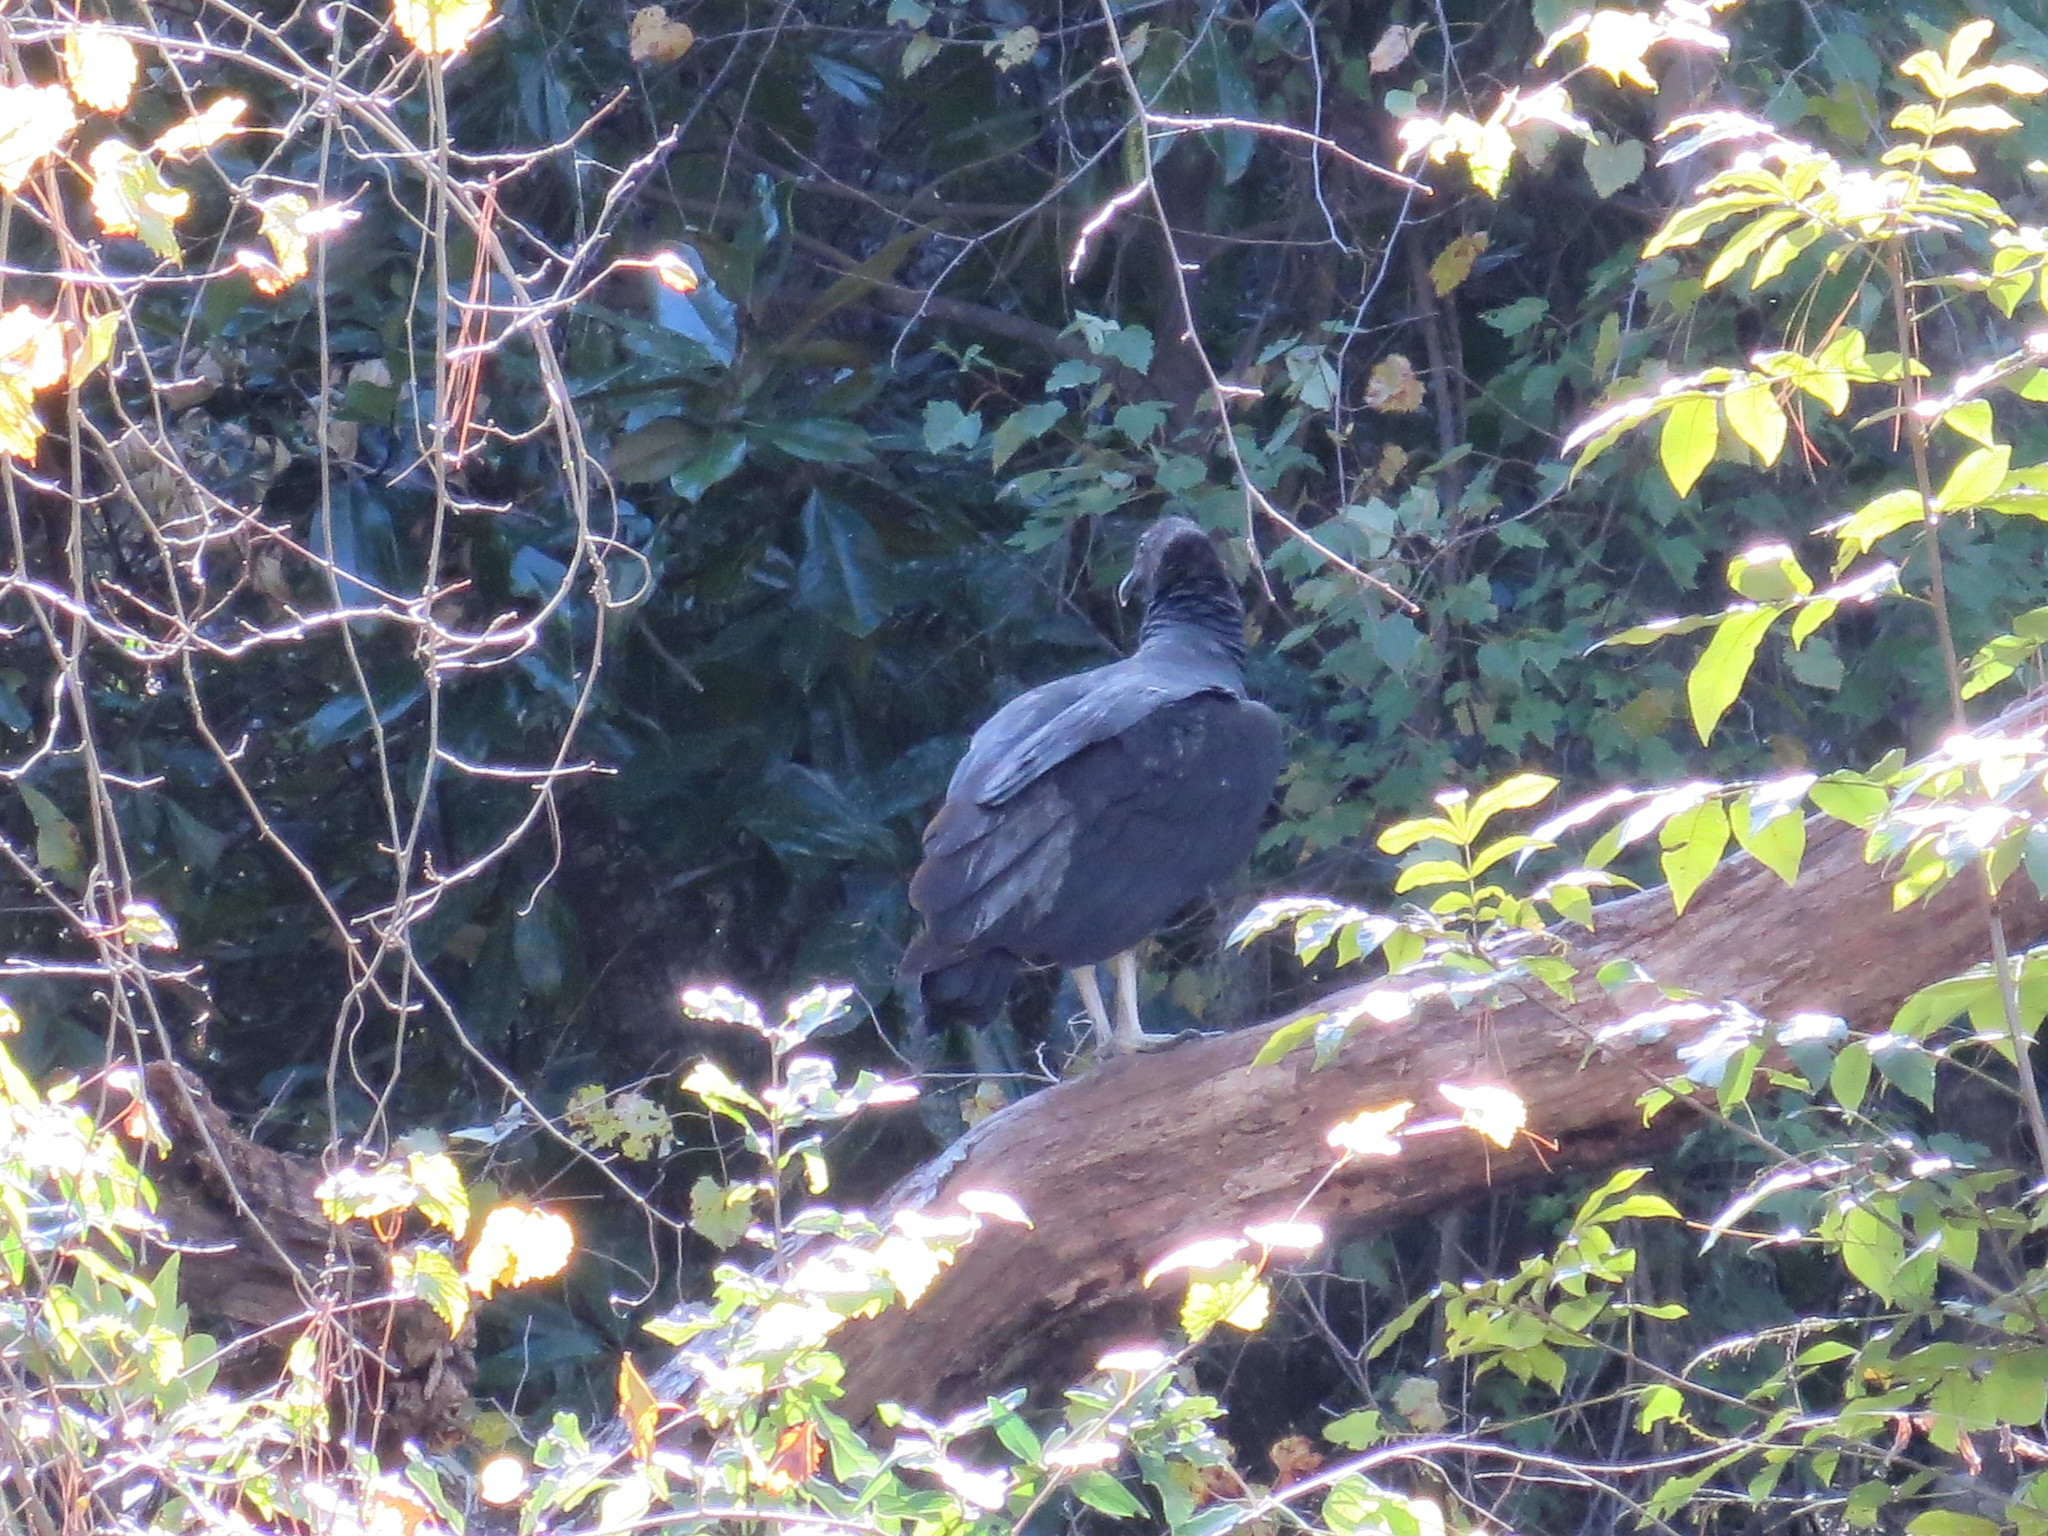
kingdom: Animalia
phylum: Chordata
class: Aves
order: Accipitriformes
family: Cathartidae
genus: Coragyps
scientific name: Coragyps atratus
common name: Black vulture
